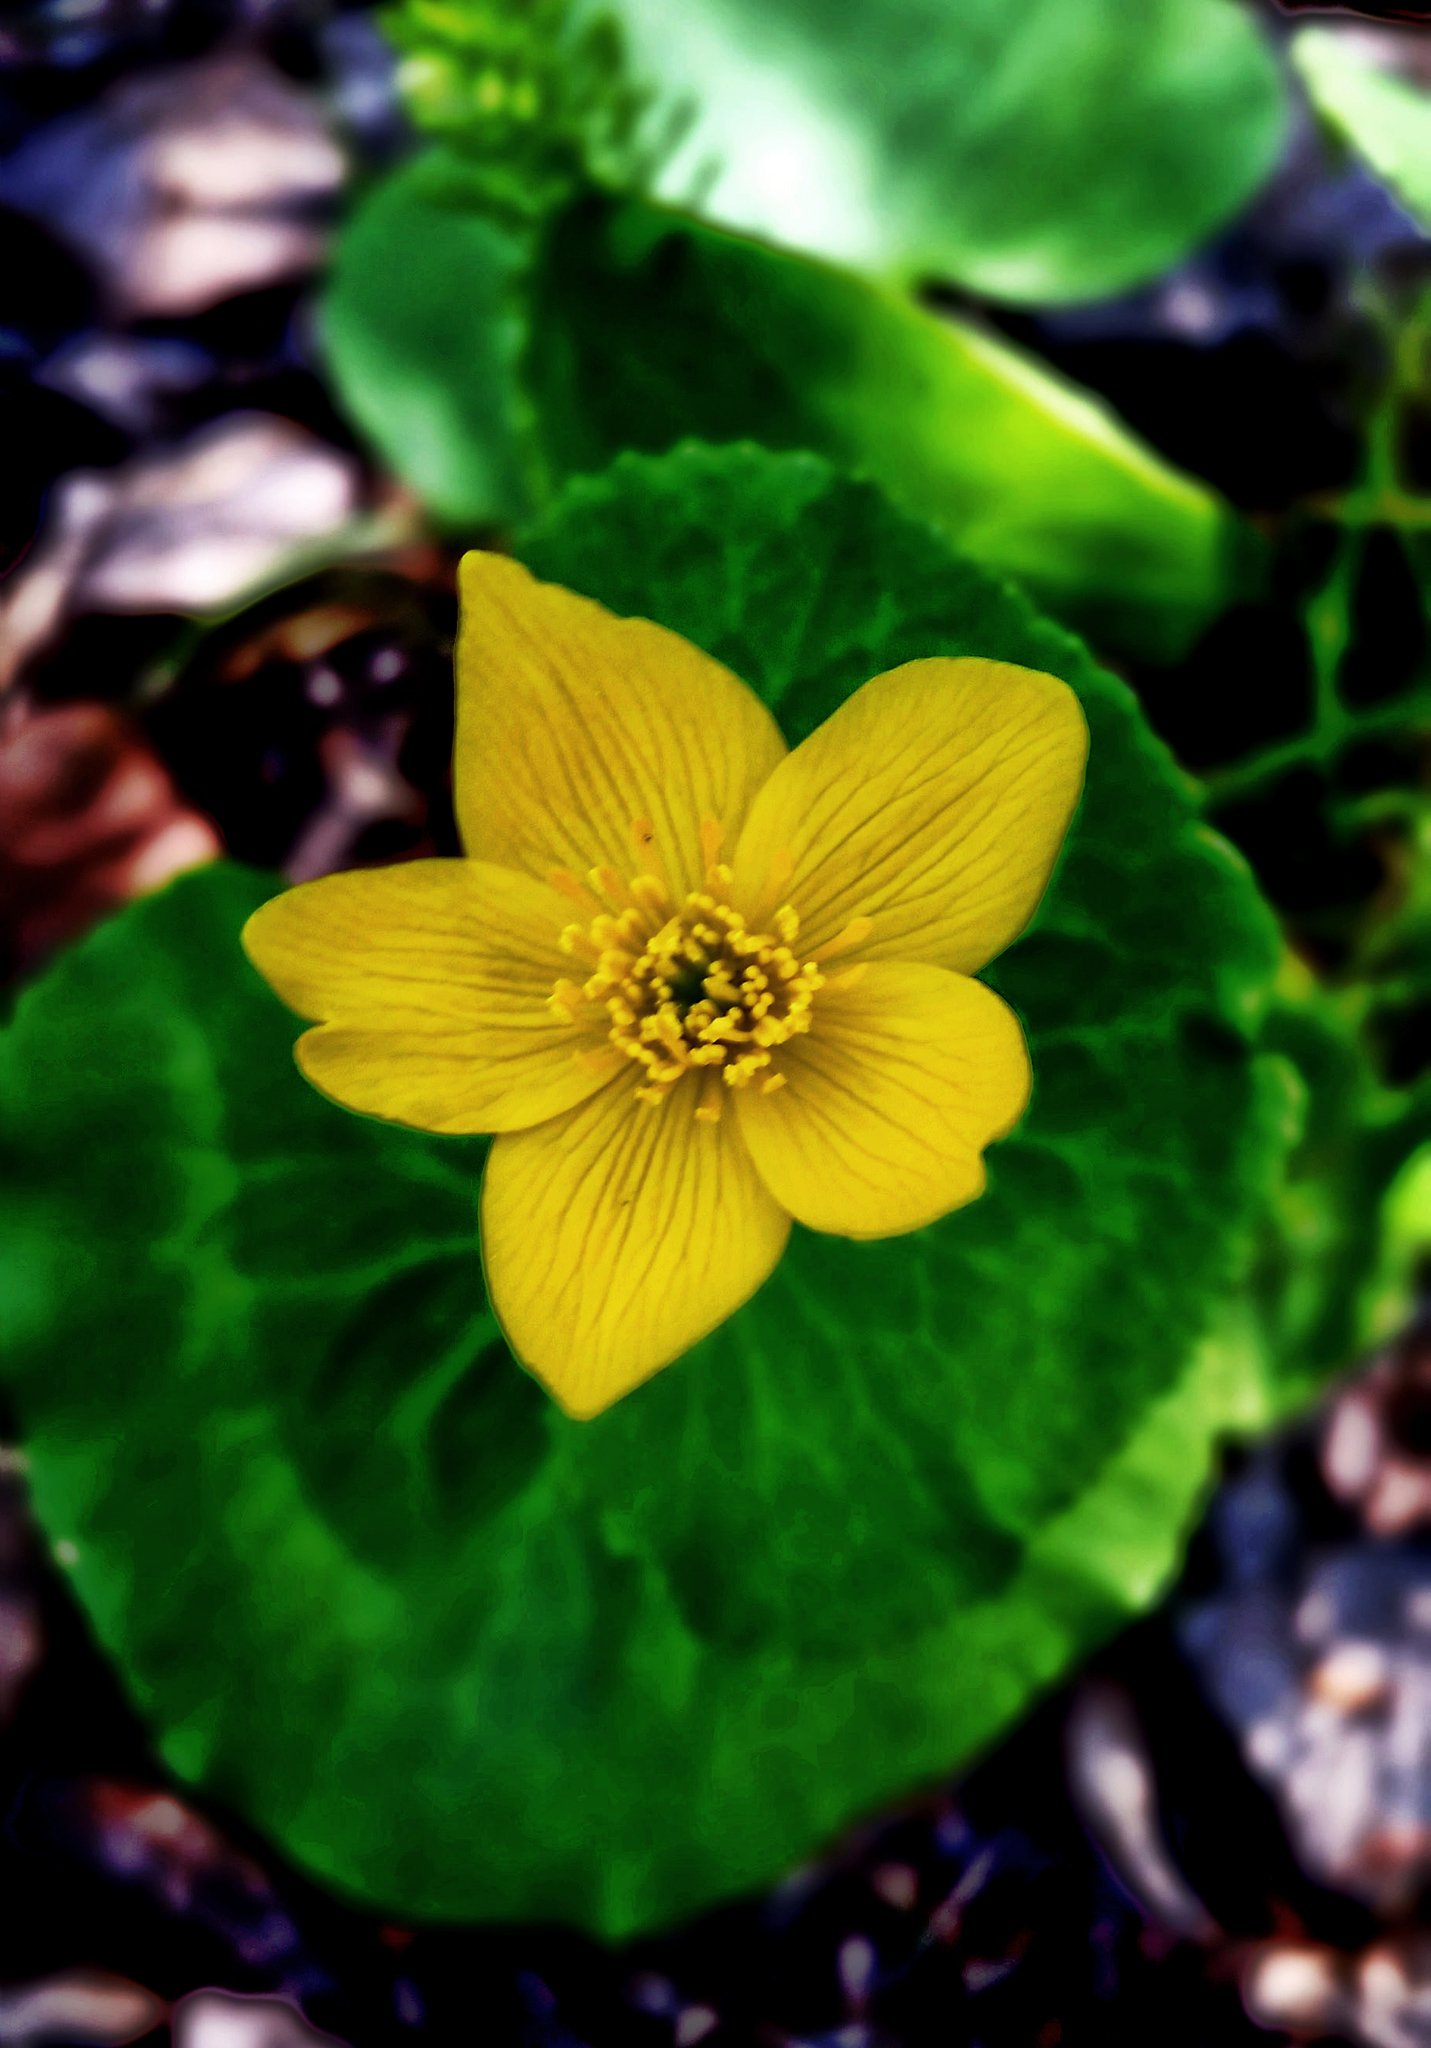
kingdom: Plantae
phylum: Tracheophyta
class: Magnoliopsida
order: Ranunculales
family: Ranunculaceae
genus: Caltha
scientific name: Caltha palustris
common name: Marsh marigold
